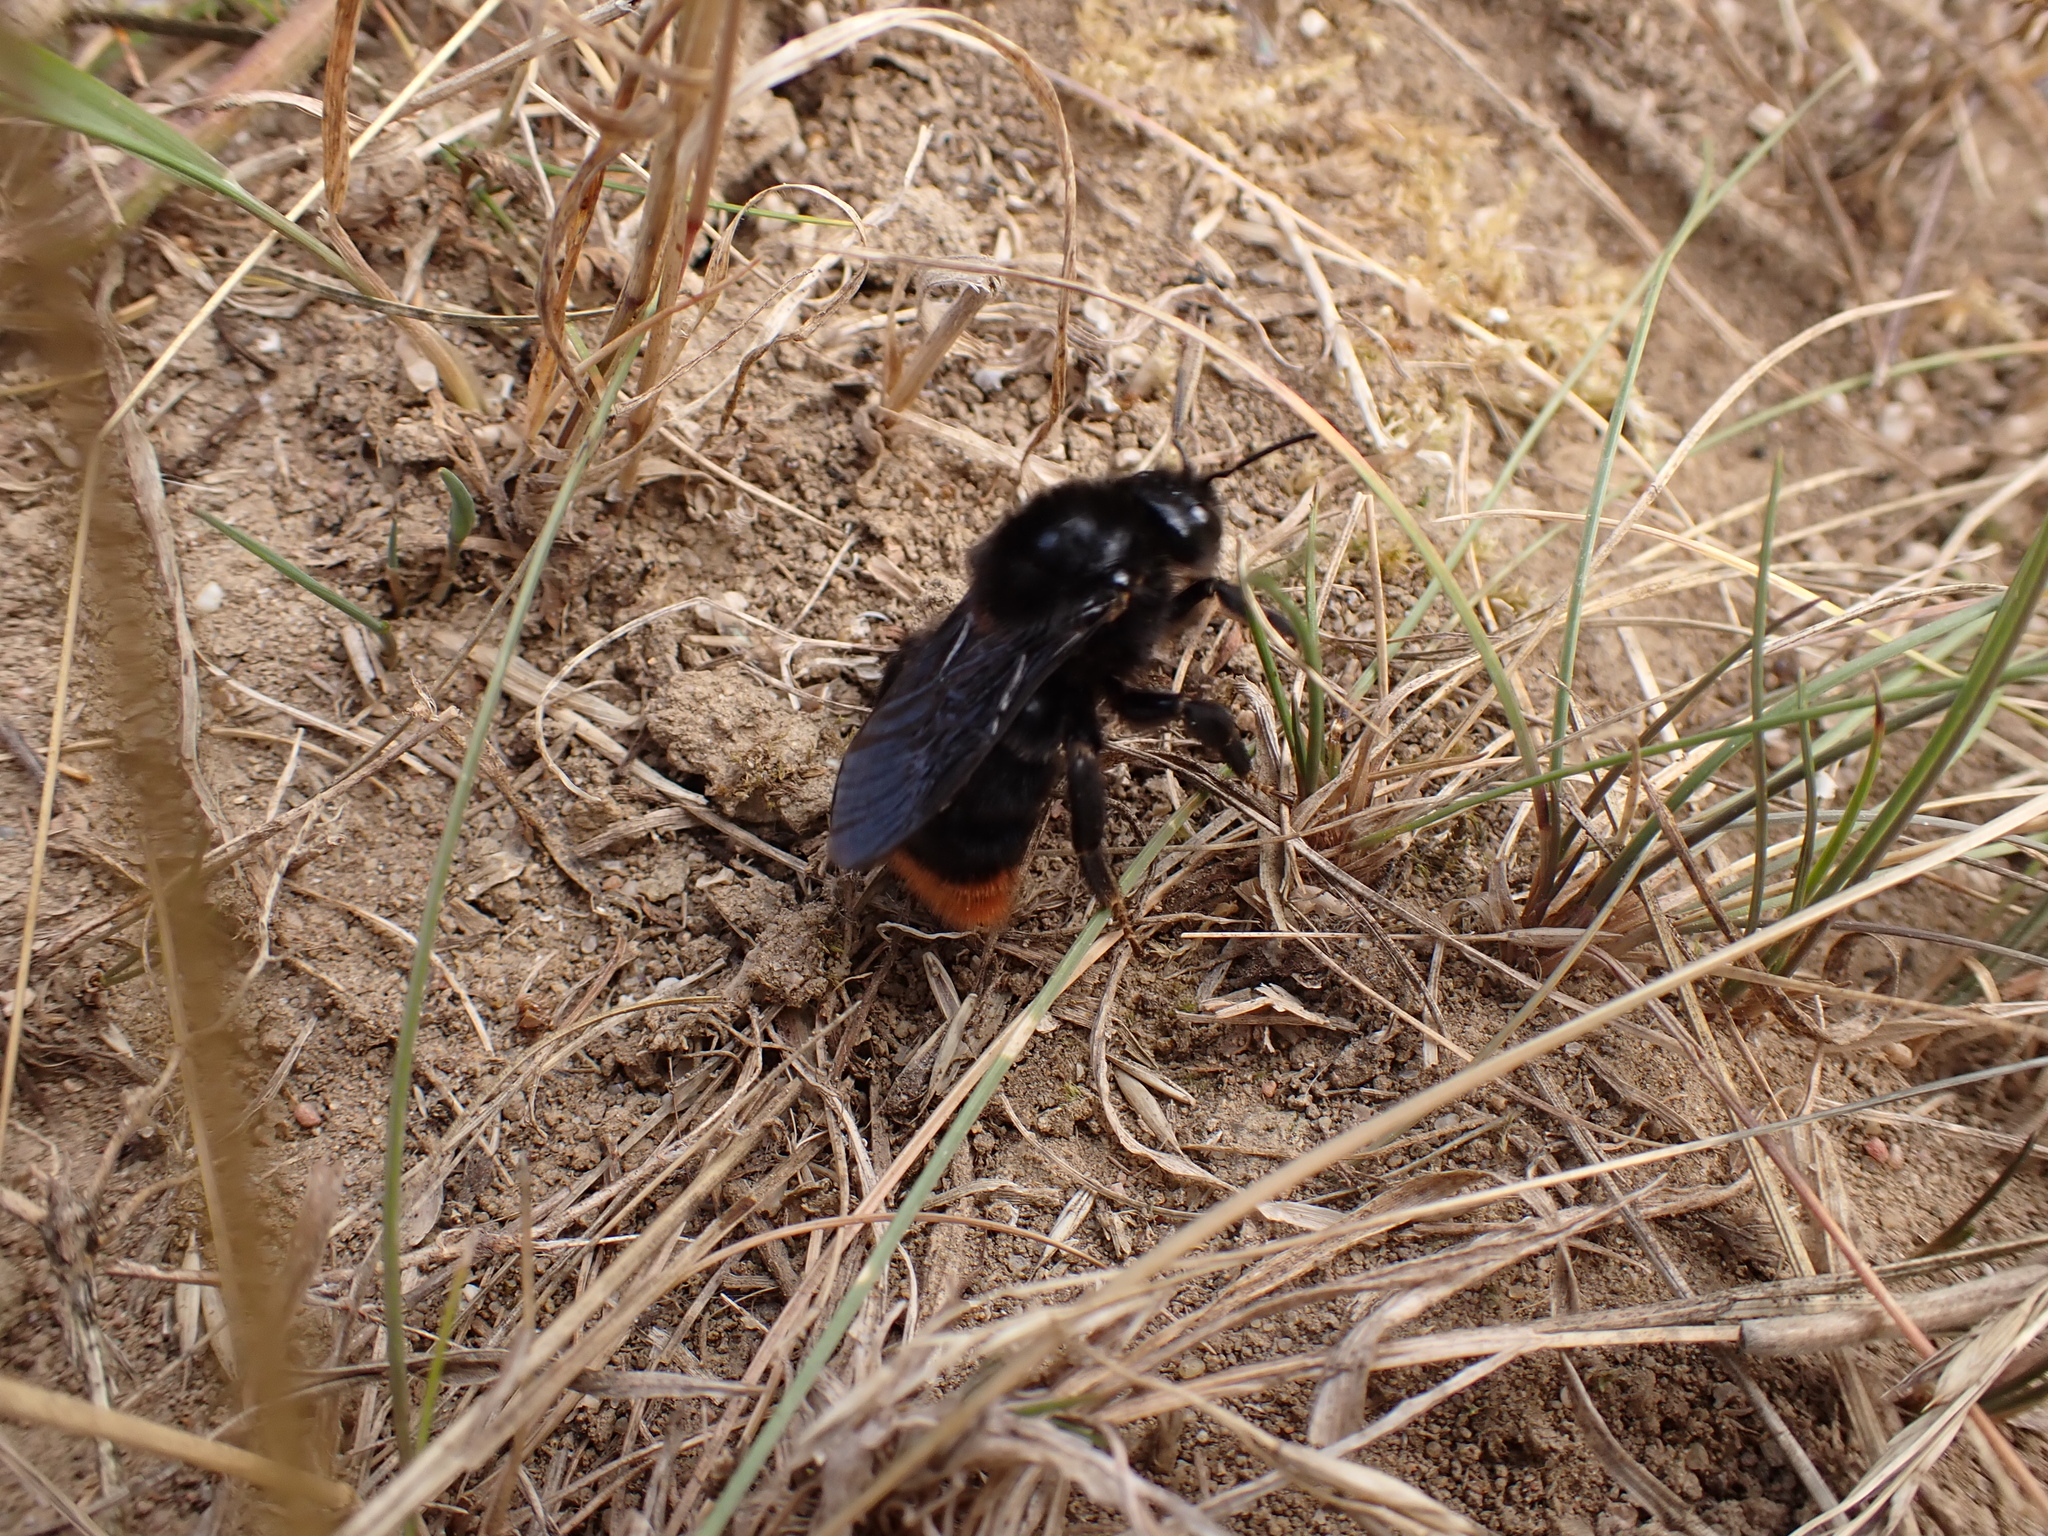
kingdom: Animalia
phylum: Arthropoda
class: Insecta
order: Hymenoptera
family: Apidae
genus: Bombus
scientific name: Bombus rupestris
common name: Hill cuckoo-bee
